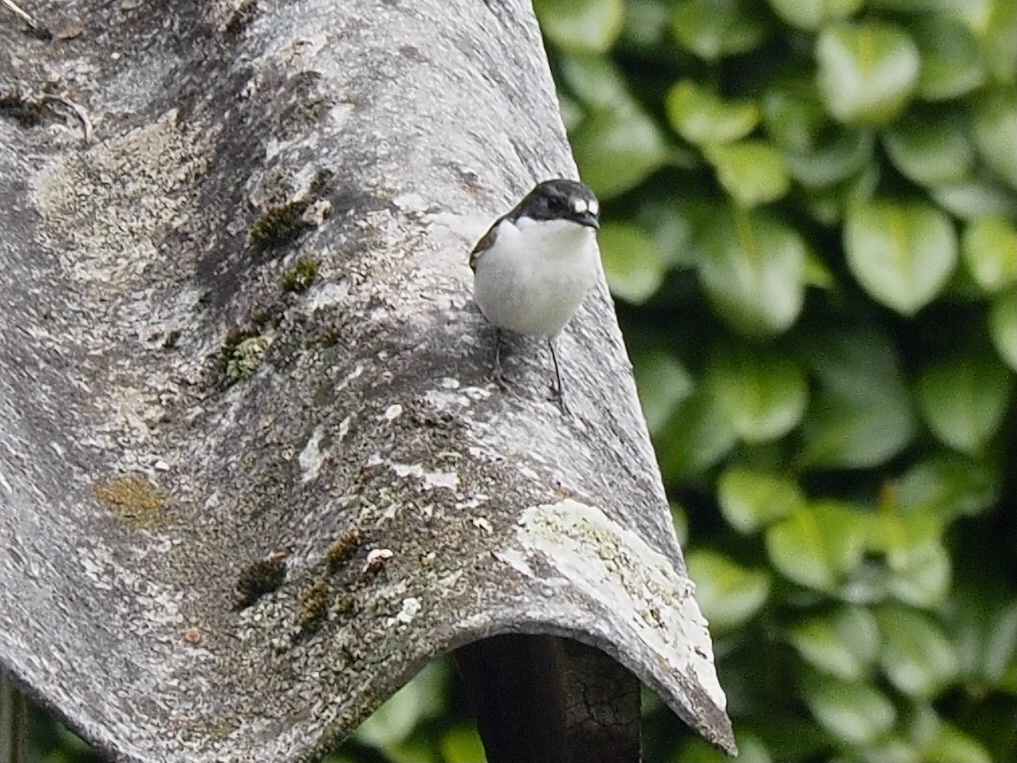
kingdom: Animalia
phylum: Chordata
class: Aves
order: Passeriformes
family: Muscicapidae
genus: Ficedula
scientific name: Ficedula hypoleuca
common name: European pied flycatcher
